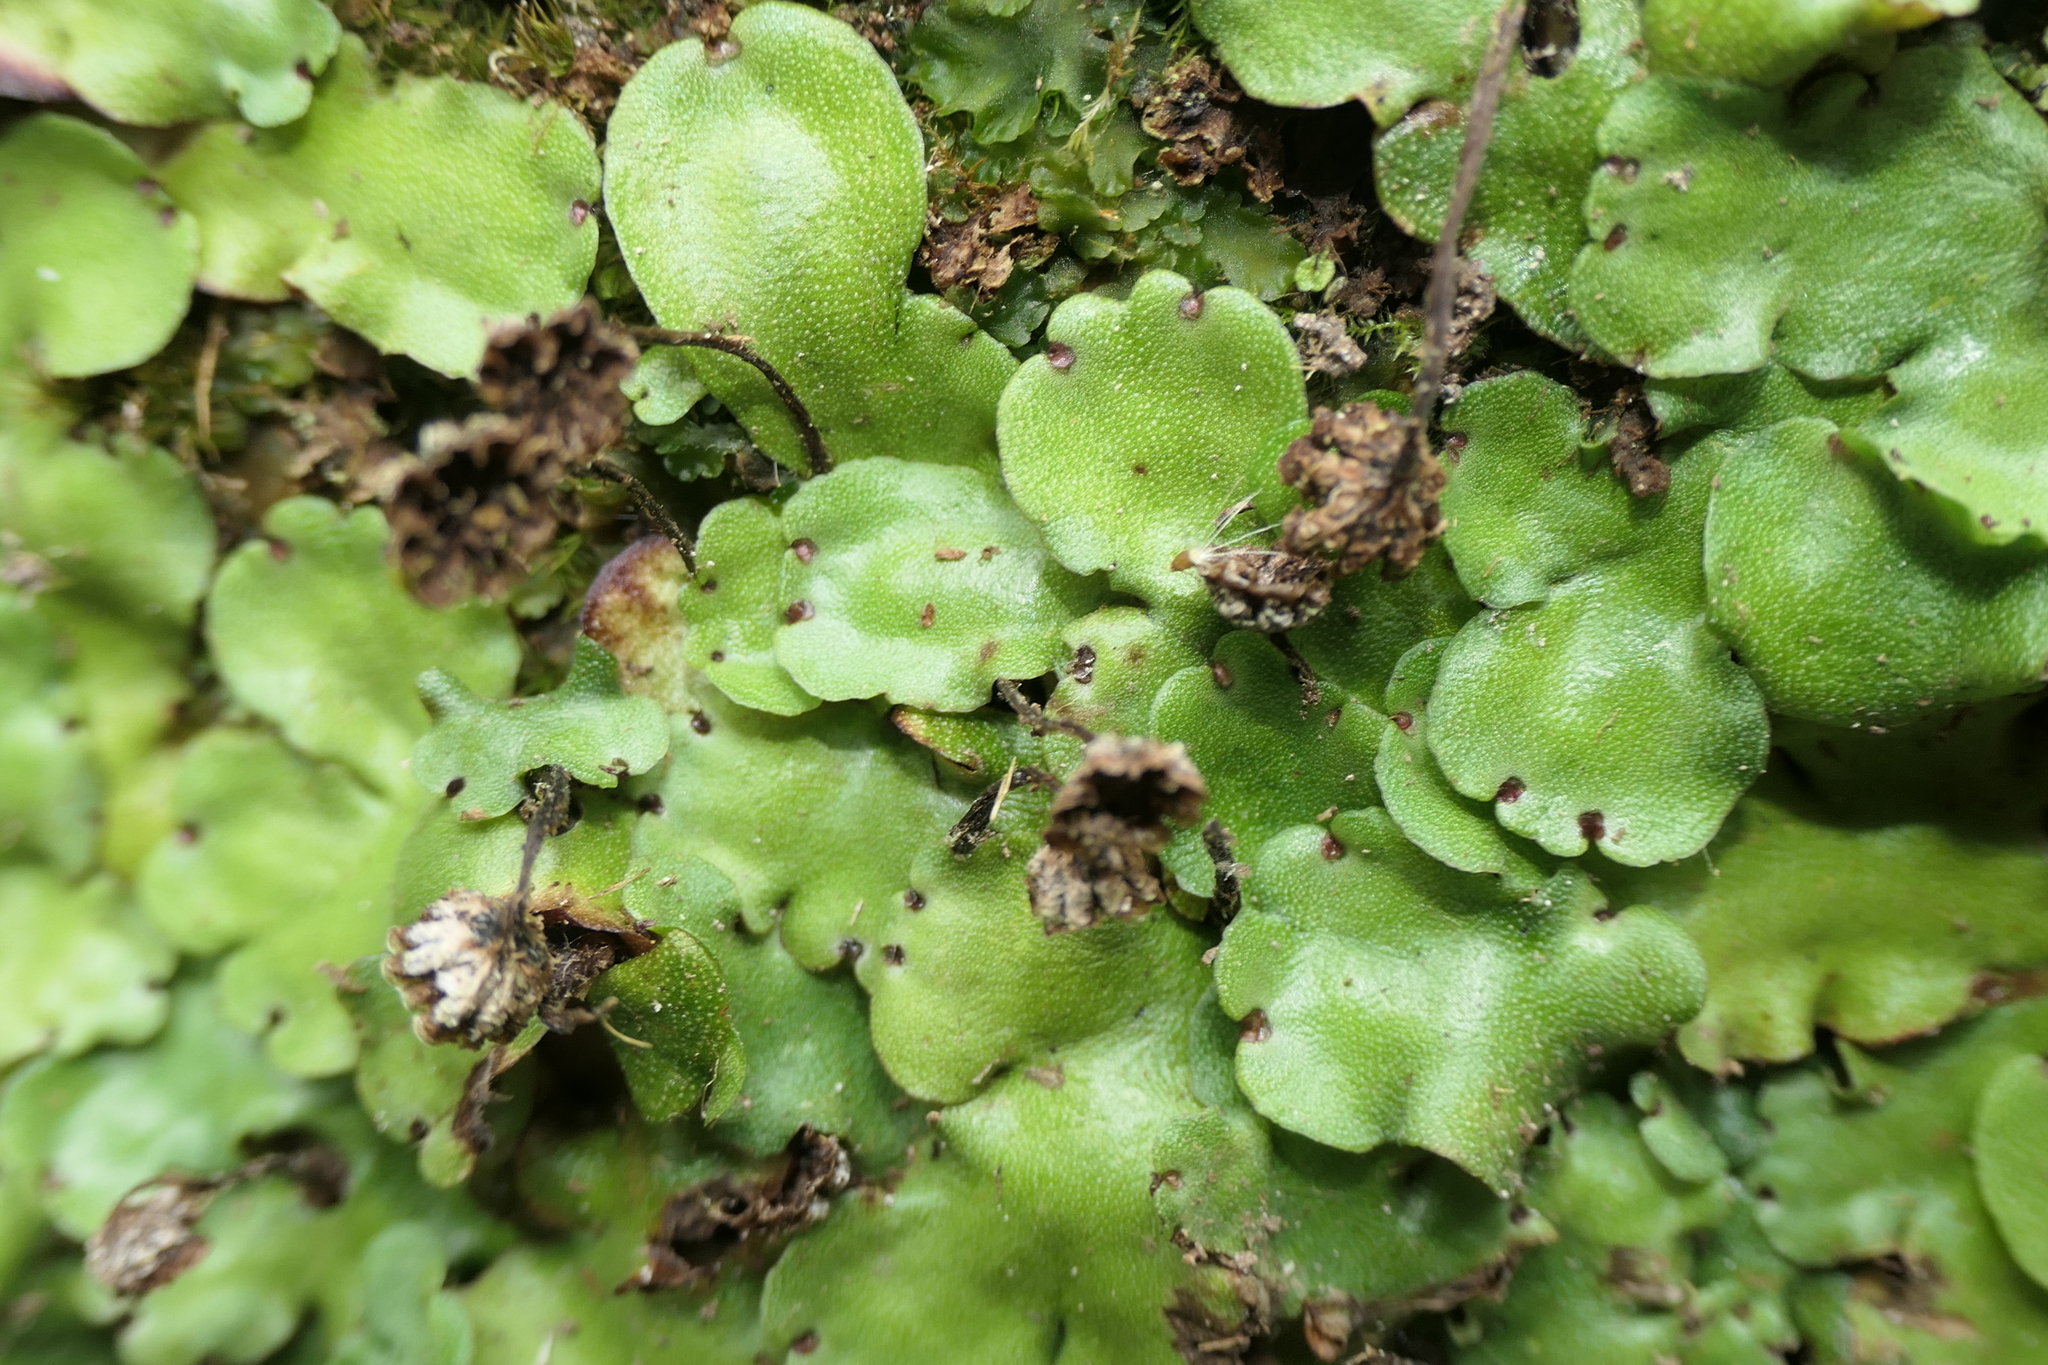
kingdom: Plantae
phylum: Marchantiophyta
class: Marchantiopsida
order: Marchantiales
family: Marchantiaceae
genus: Marchantia
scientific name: Marchantia paleacea
